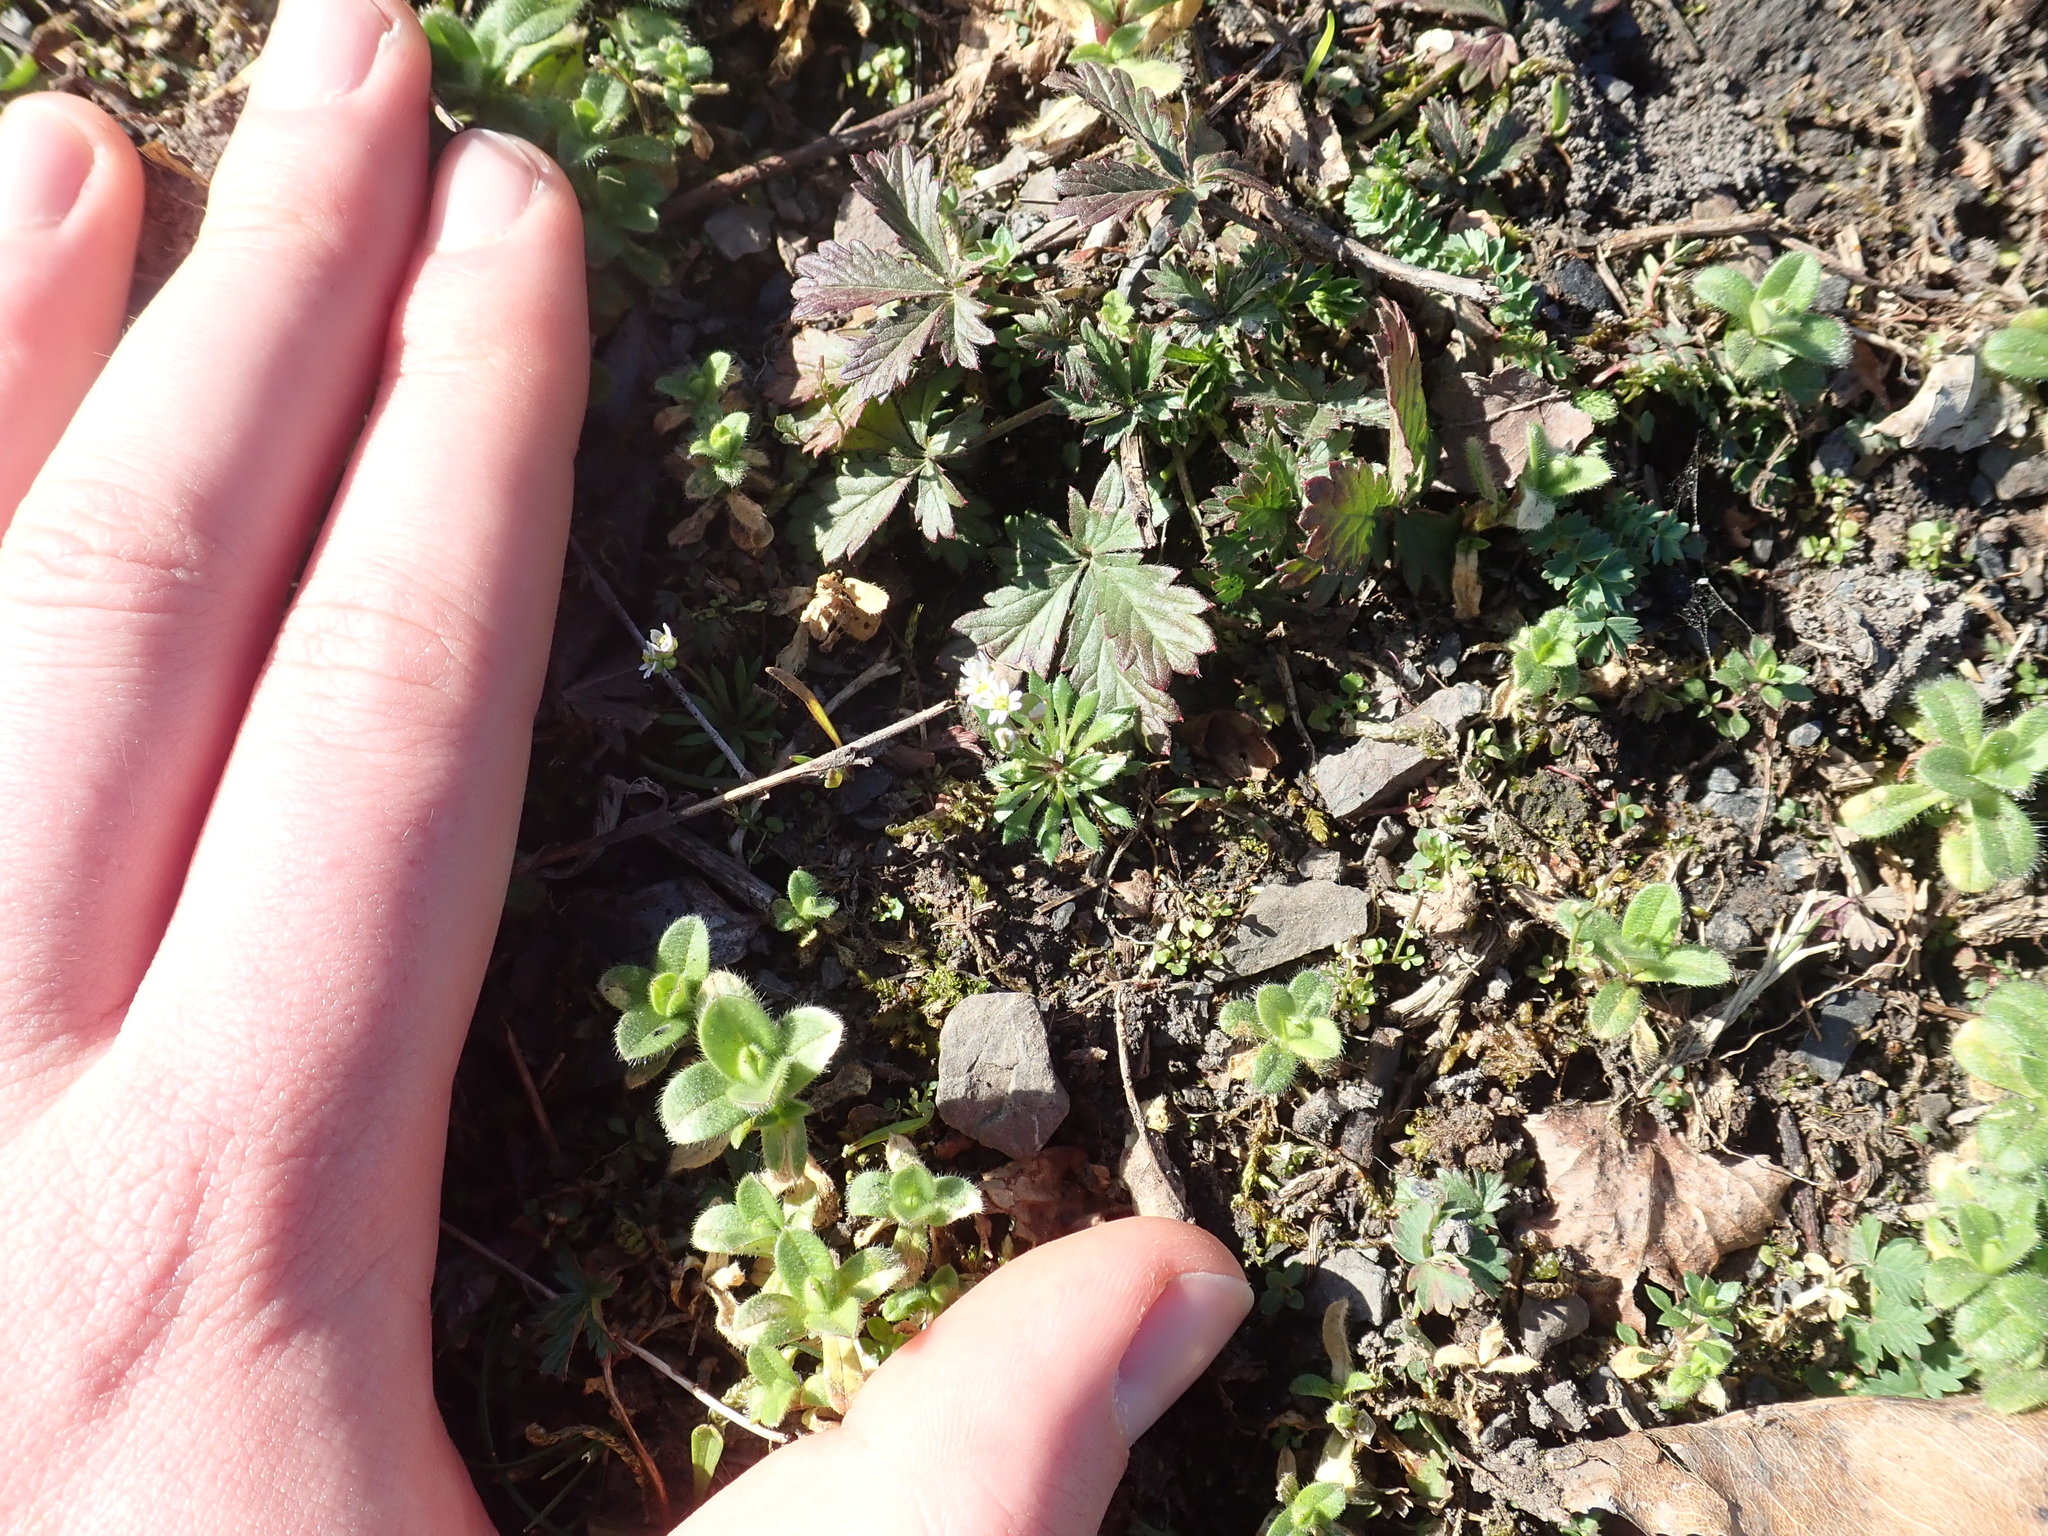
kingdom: Plantae
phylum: Tracheophyta
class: Magnoliopsida
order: Brassicales
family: Brassicaceae
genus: Draba
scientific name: Draba verna
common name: Spring draba
